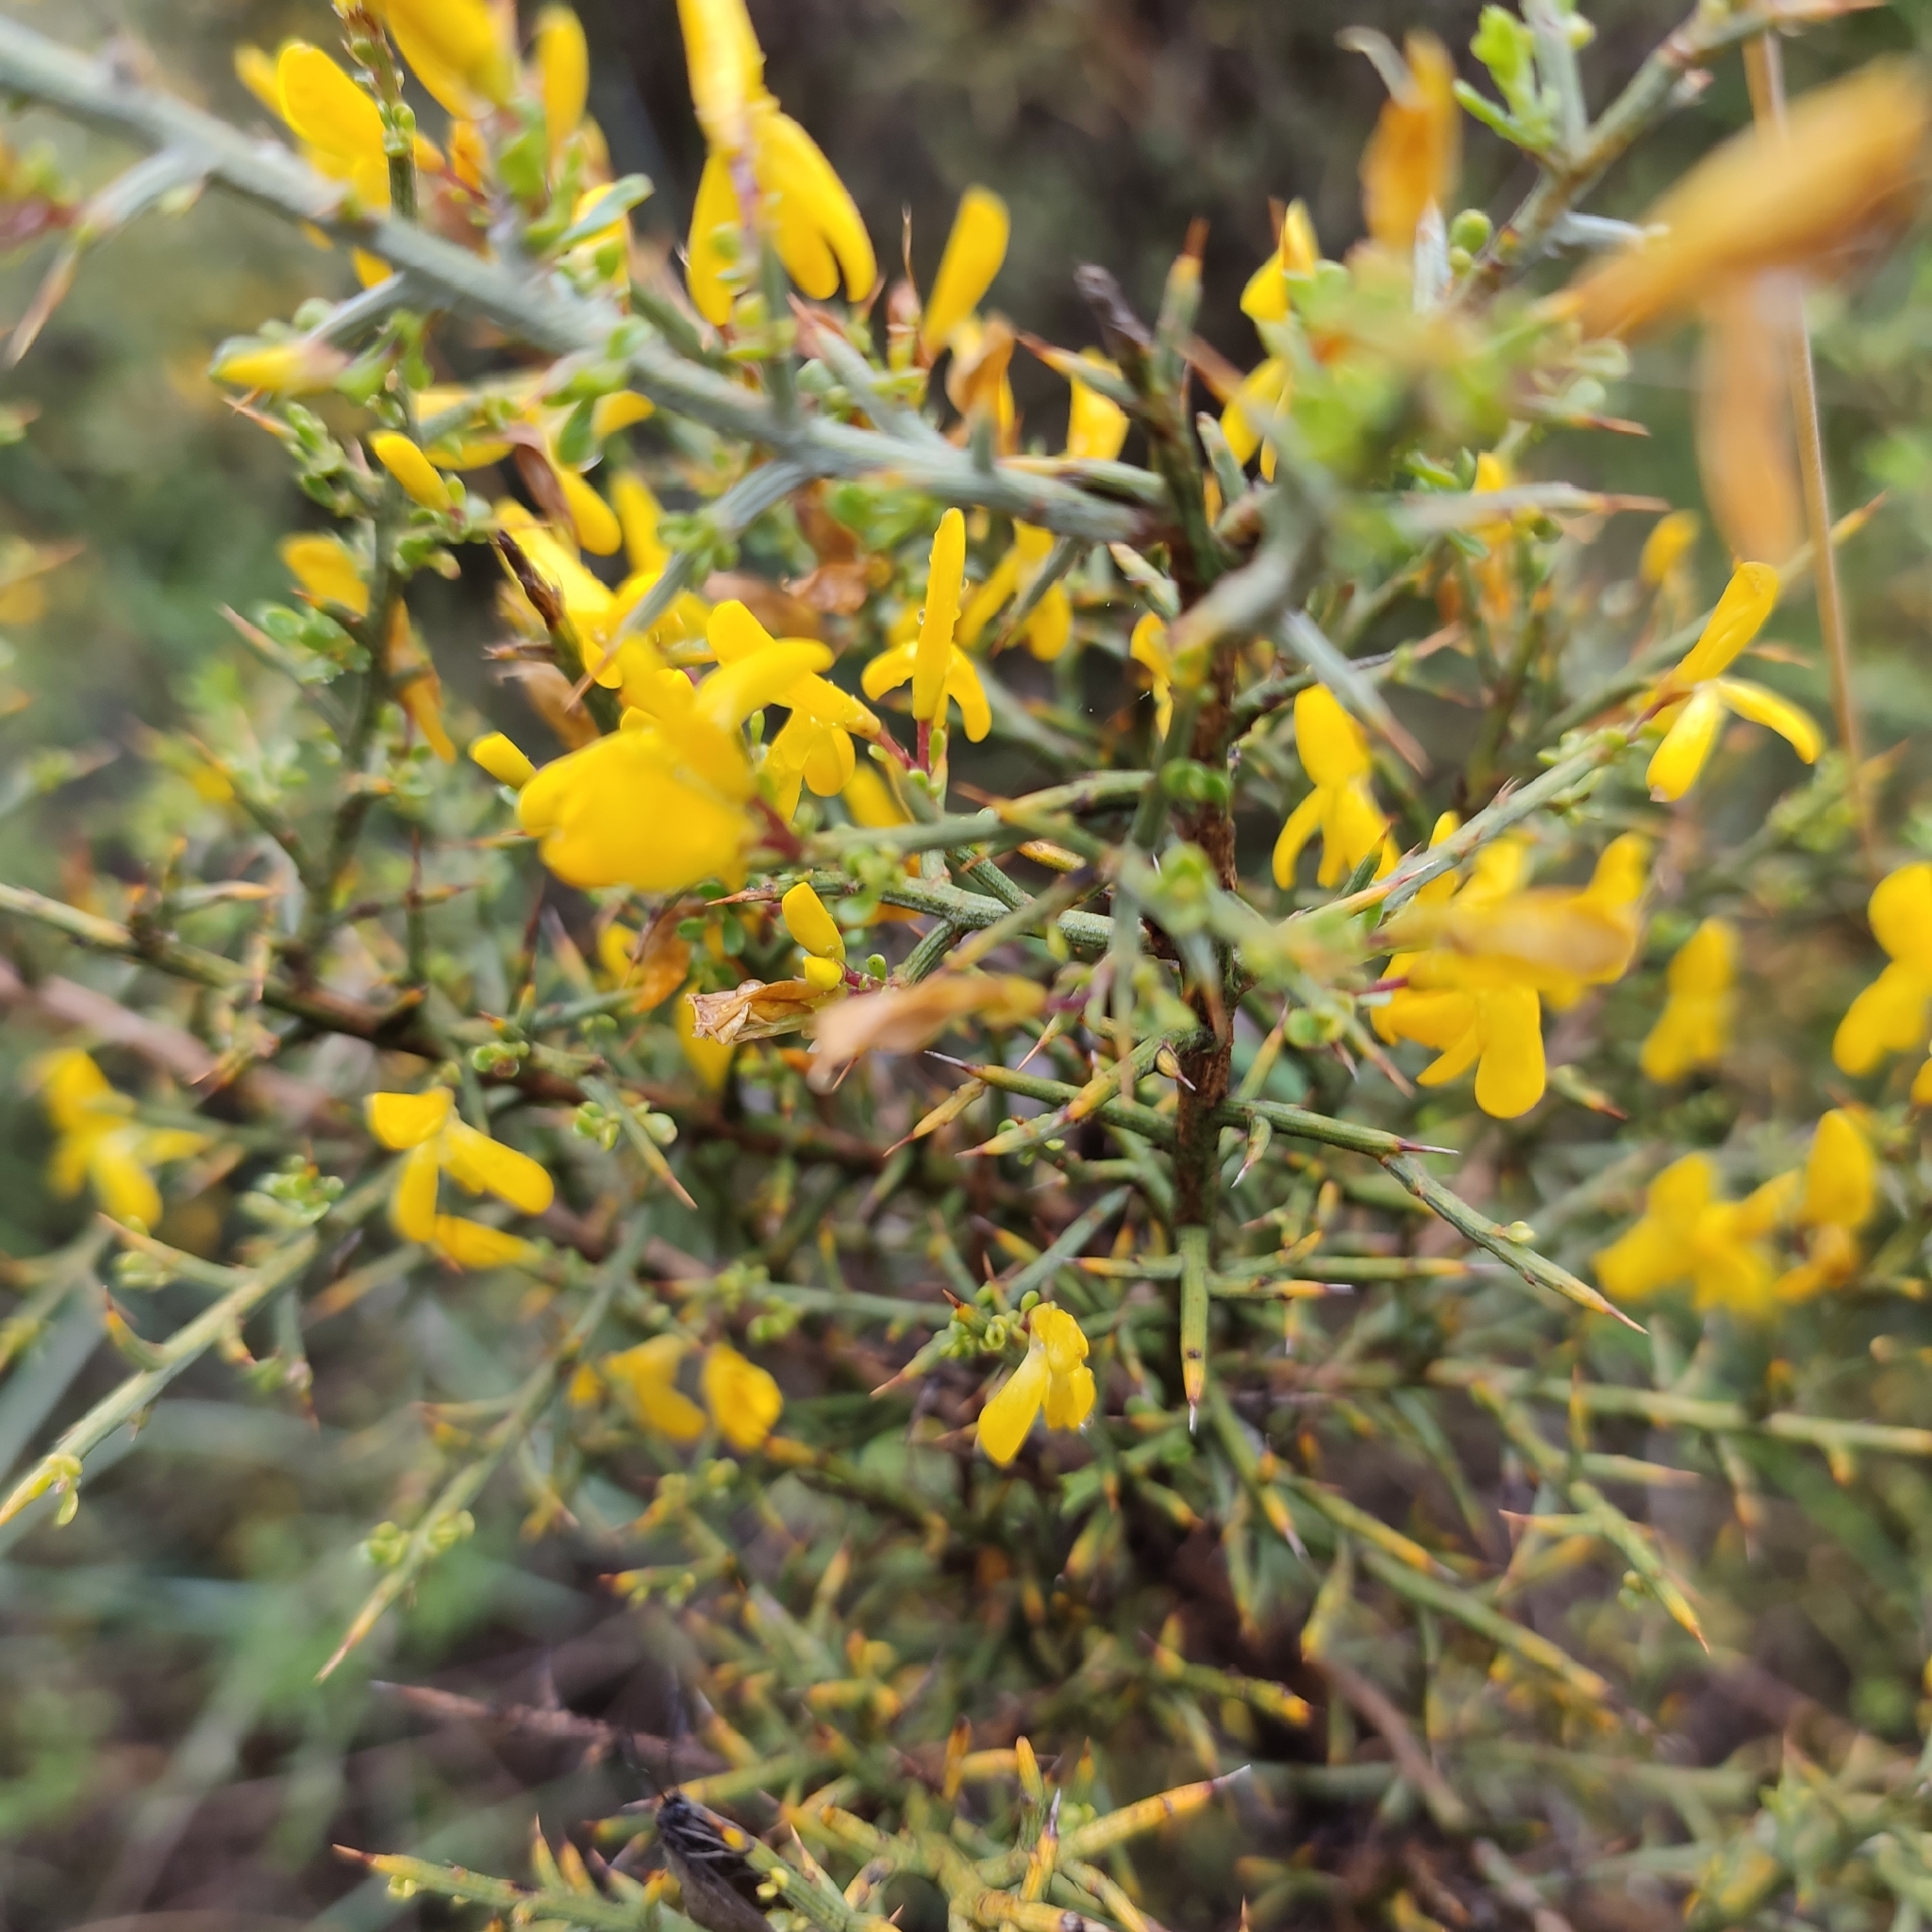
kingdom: Plantae
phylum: Tracheophyta
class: Magnoliopsida
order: Fabales
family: Fabaceae
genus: Genista
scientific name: Genista scorpius
